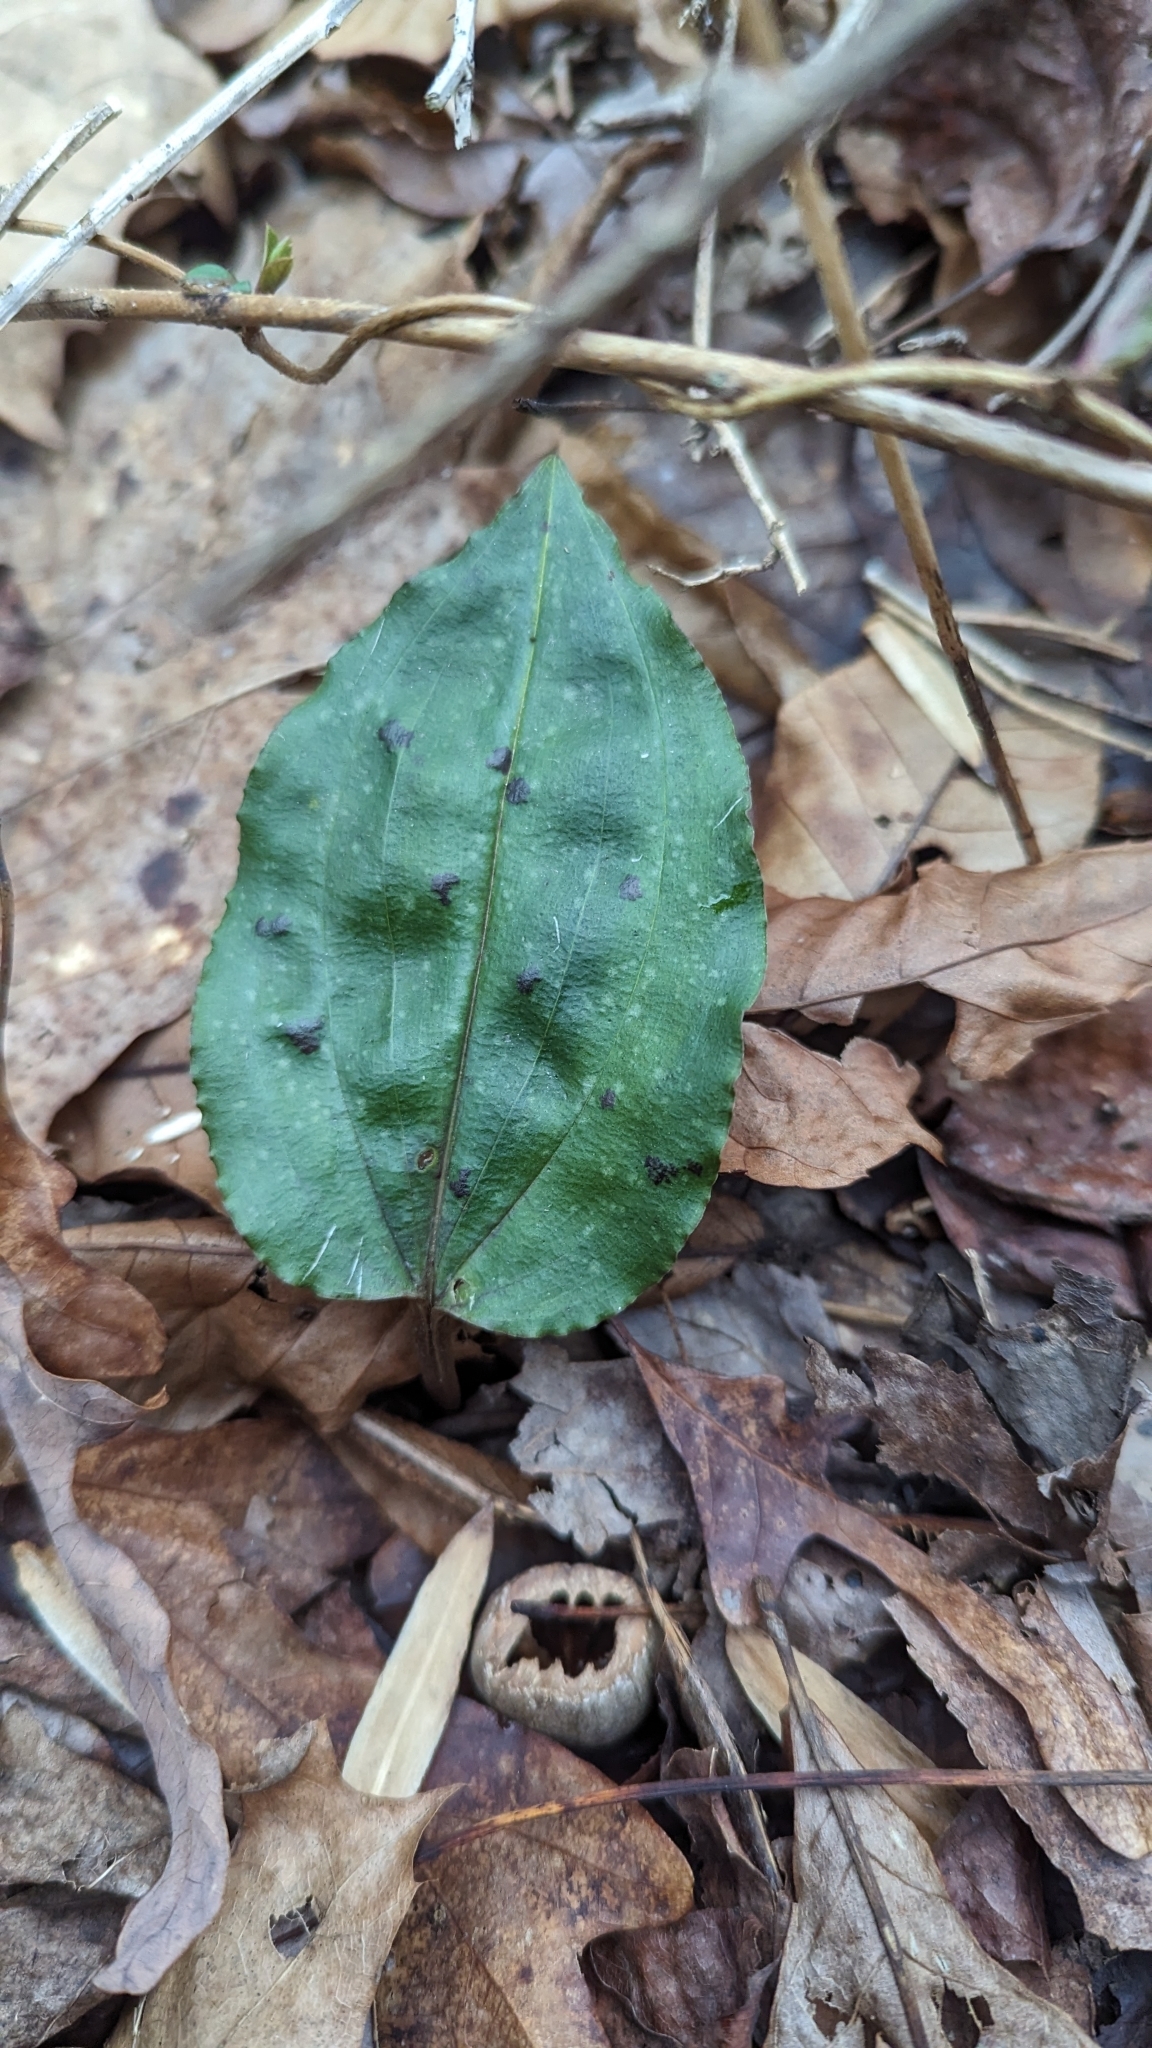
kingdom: Plantae
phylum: Tracheophyta
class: Liliopsida
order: Asparagales
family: Orchidaceae
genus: Tipularia
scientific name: Tipularia discolor
